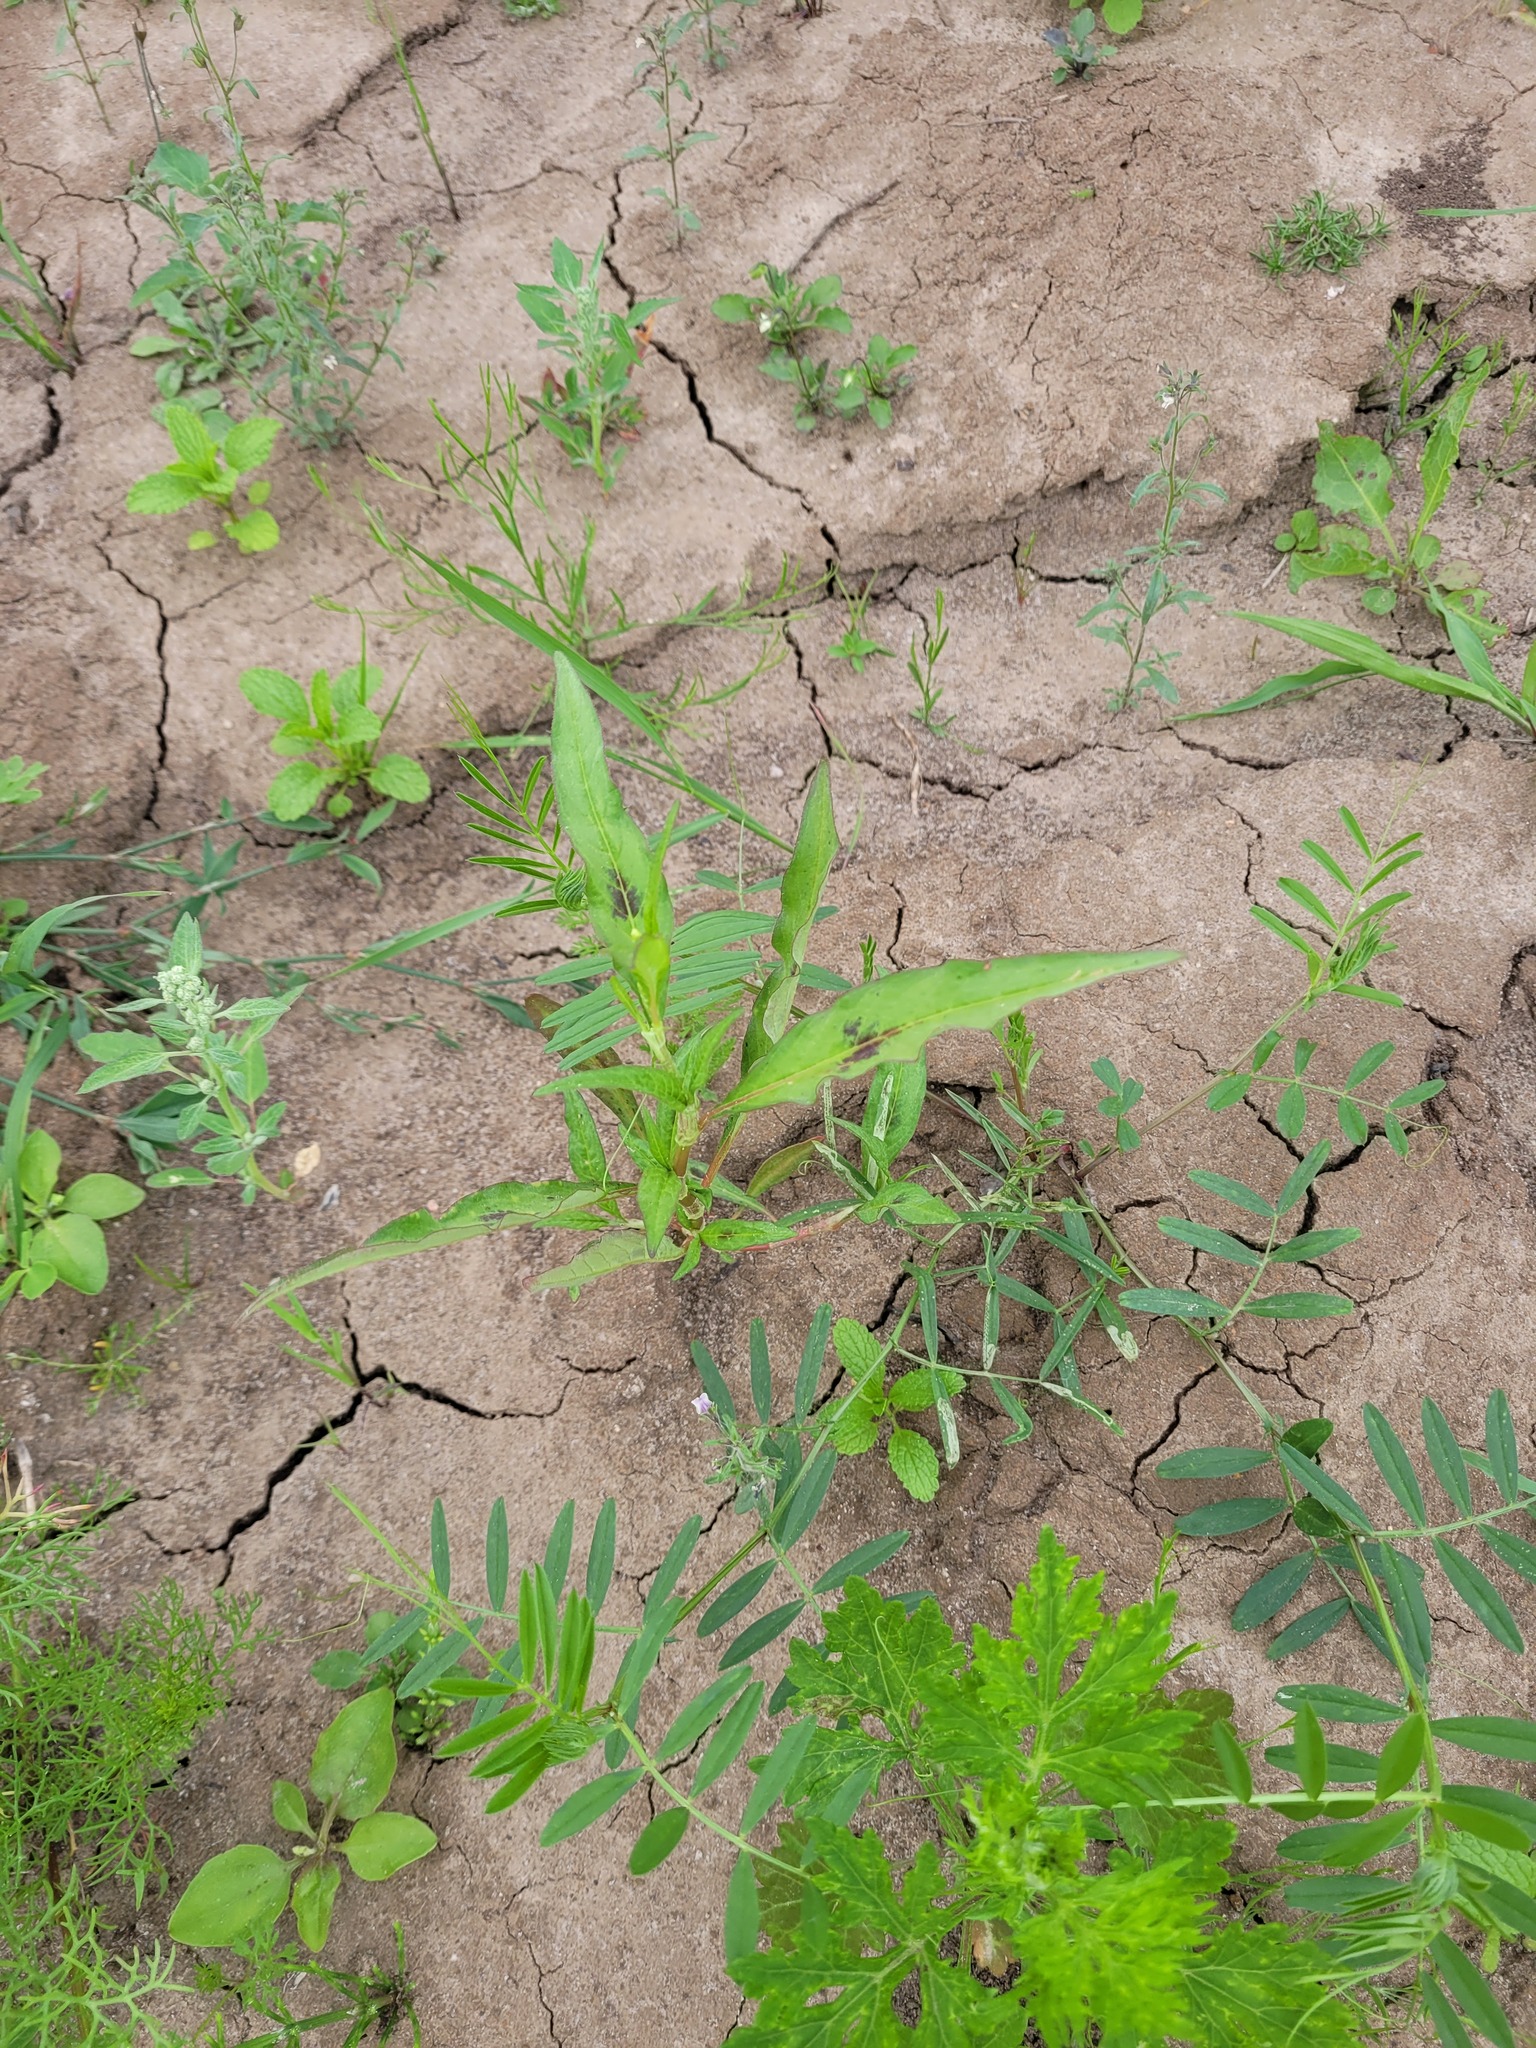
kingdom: Plantae
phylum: Tracheophyta
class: Magnoliopsida
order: Caryophyllales
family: Polygonaceae
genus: Persicaria
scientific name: Persicaria lapathifolia
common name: Curlytop knotweed
